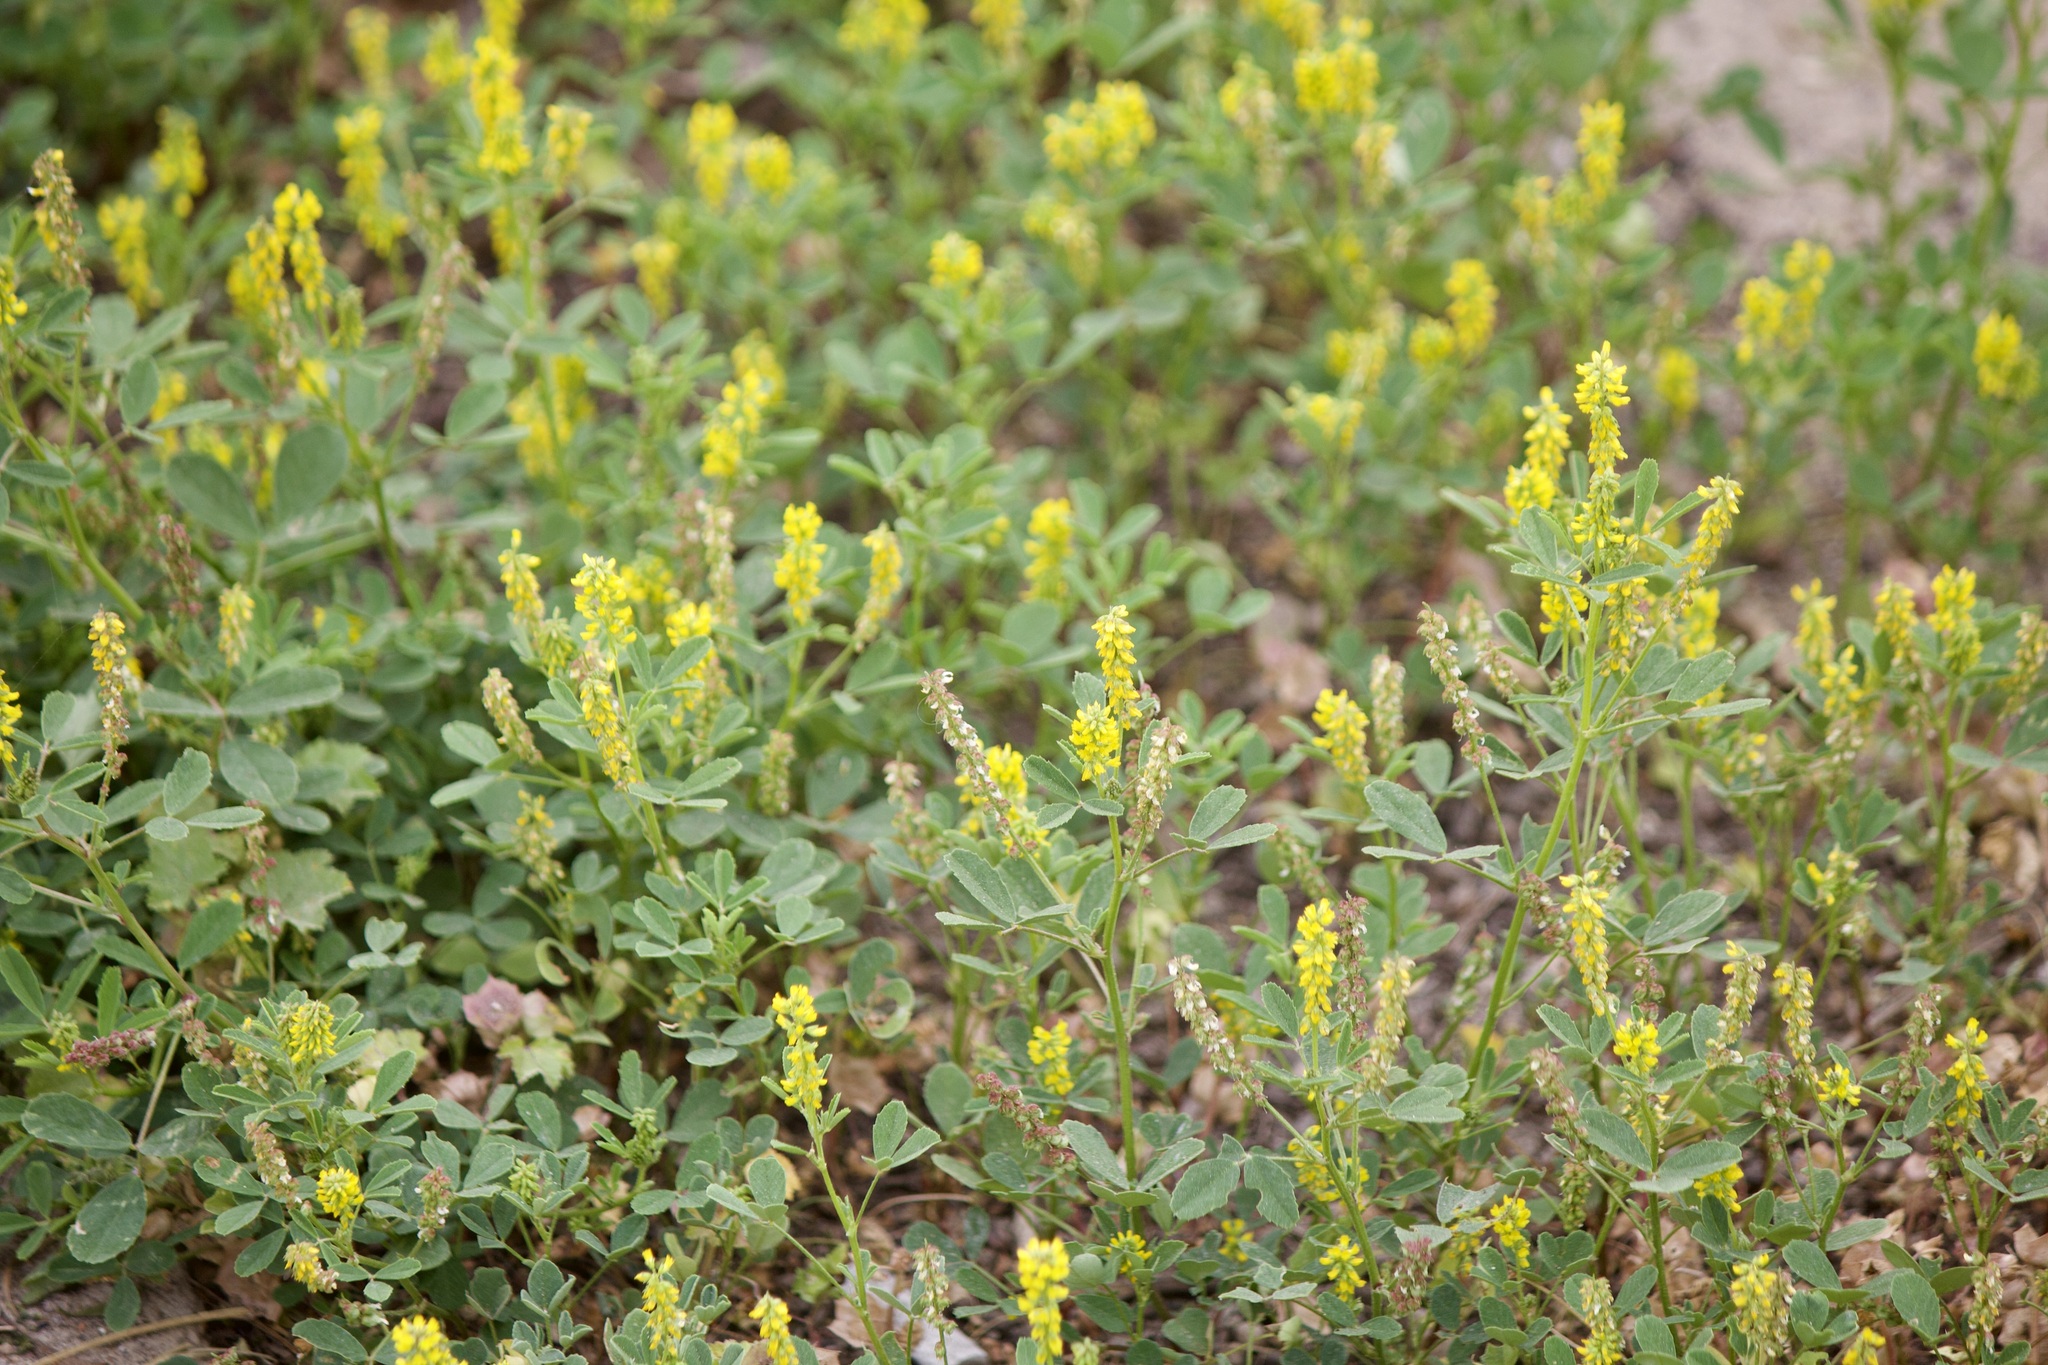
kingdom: Plantae
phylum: Tracheophyta
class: Magnoliopsida
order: Fabales
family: Fabaceae
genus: Melilotus
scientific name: Melilotus indicus
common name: Small melilot
